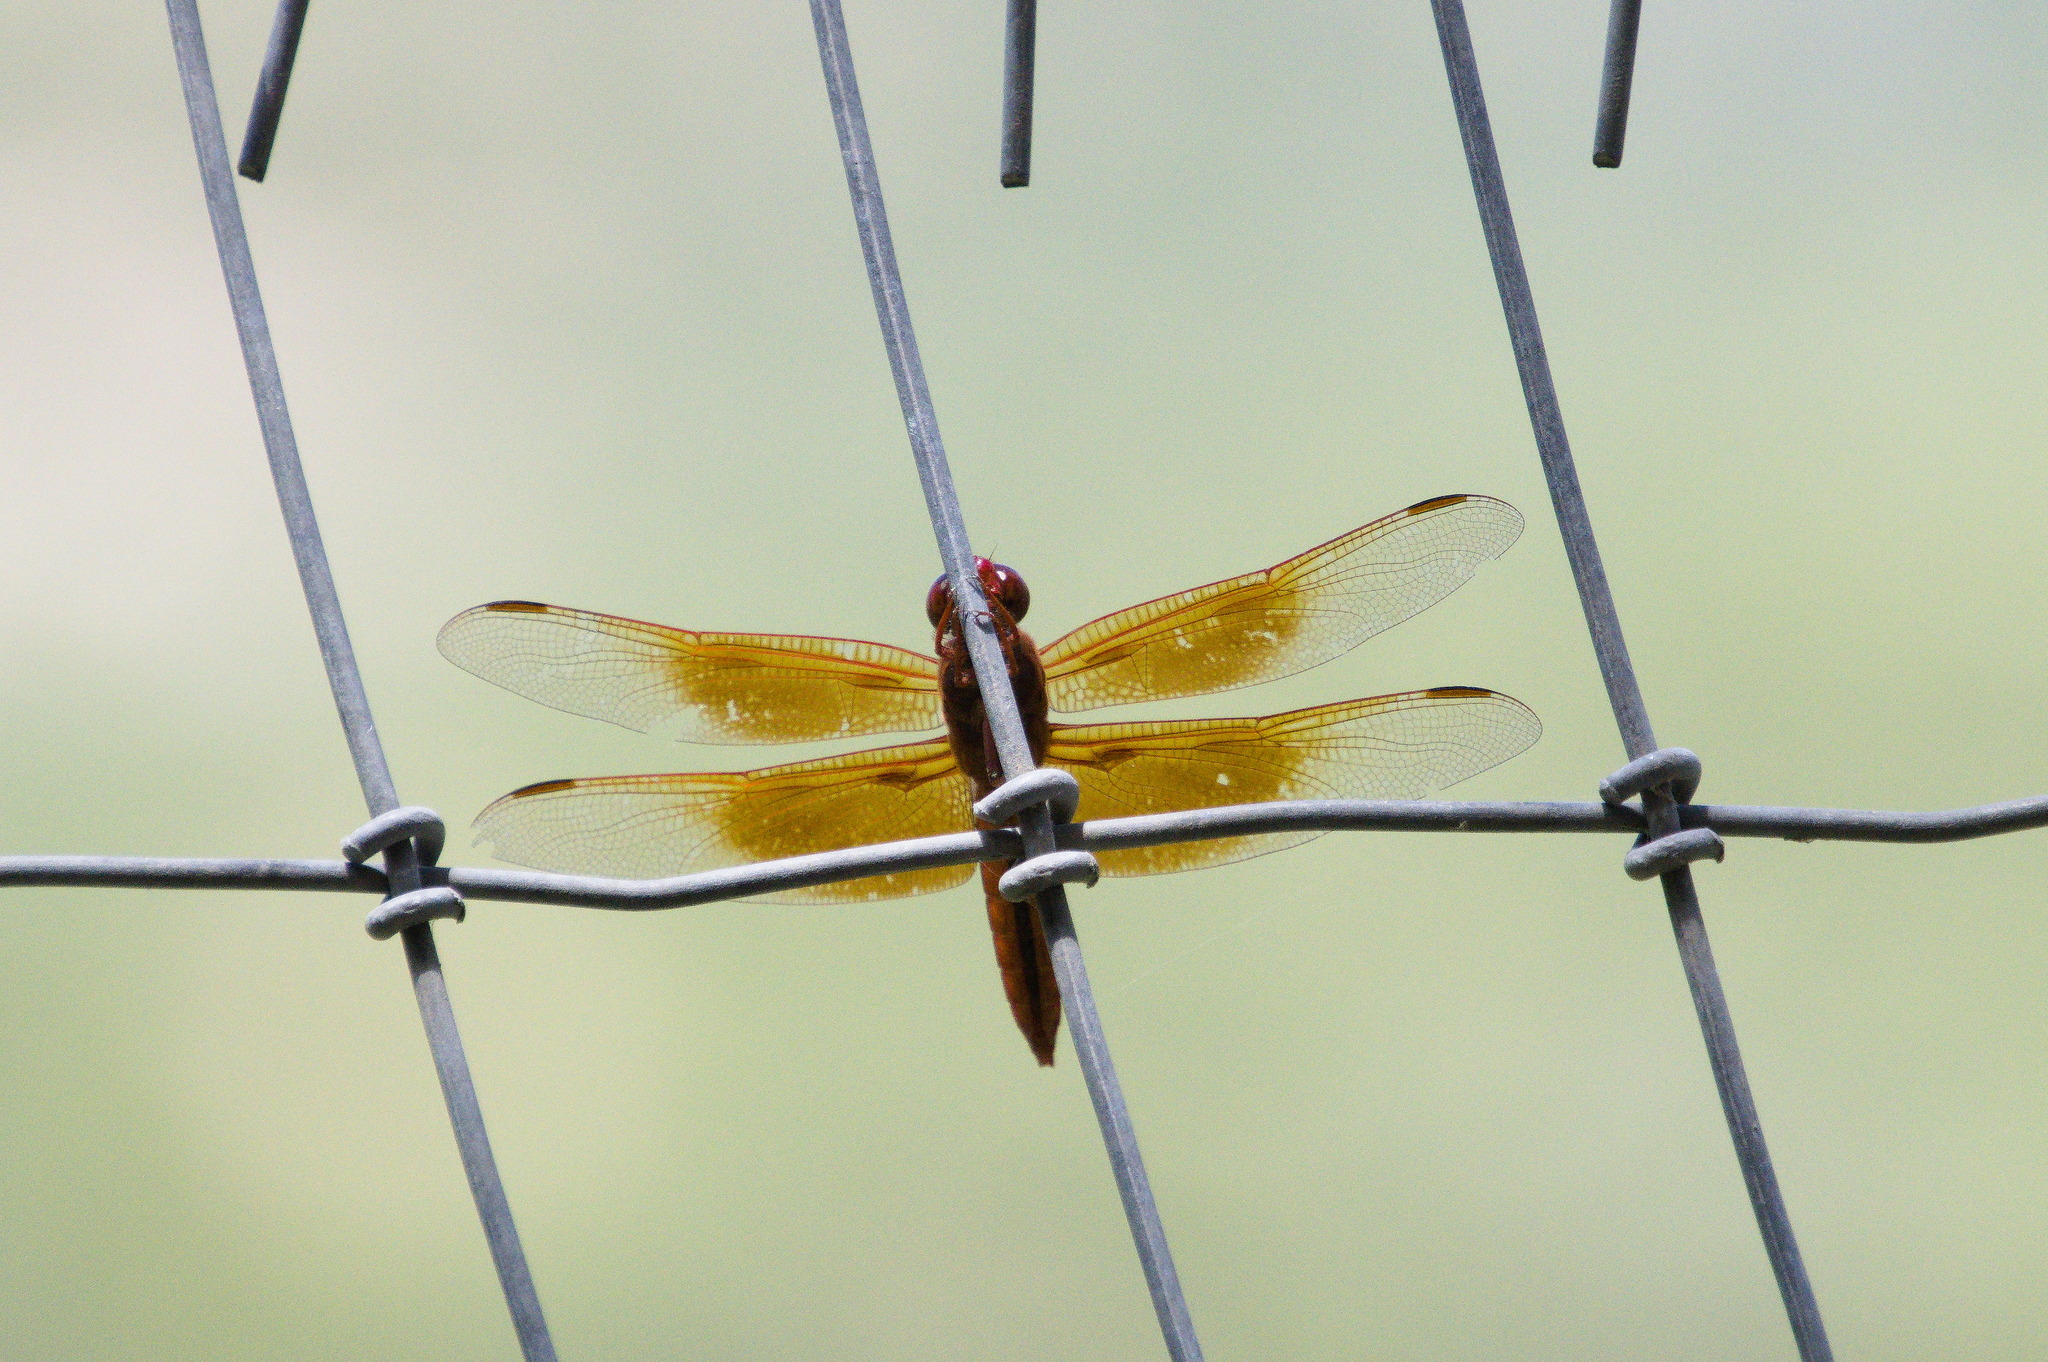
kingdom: Animalia
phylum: Arthropoda
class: Insecta
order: Odonata
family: Libellulidae
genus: Libellula
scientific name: Libellula saturata
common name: Flame skimmer
